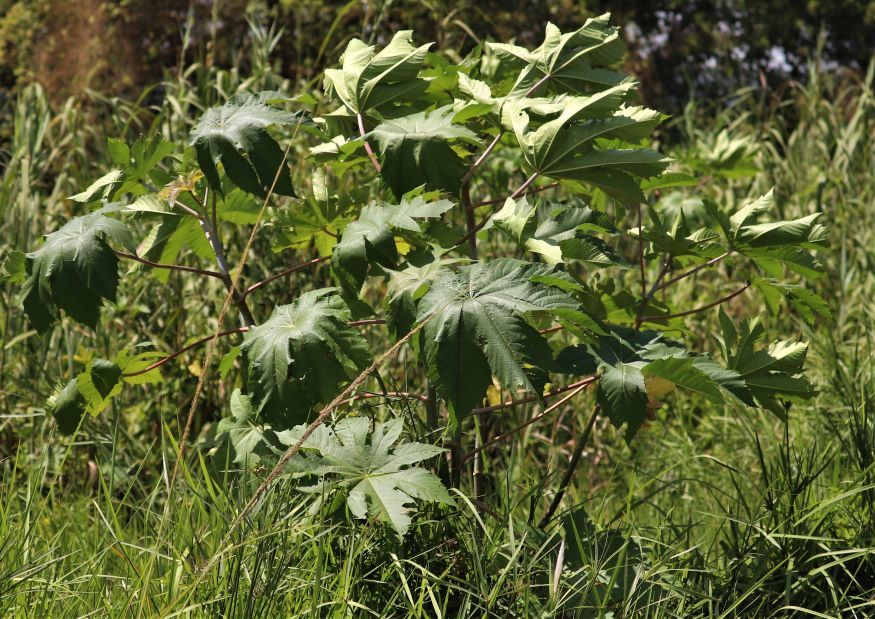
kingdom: Plantae
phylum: Tracheophyta
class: Magnoliopsida
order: Malpighiales
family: Euphorbiaceae
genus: Ricinus
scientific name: Ricinus communis
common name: Castor-oil-plant
